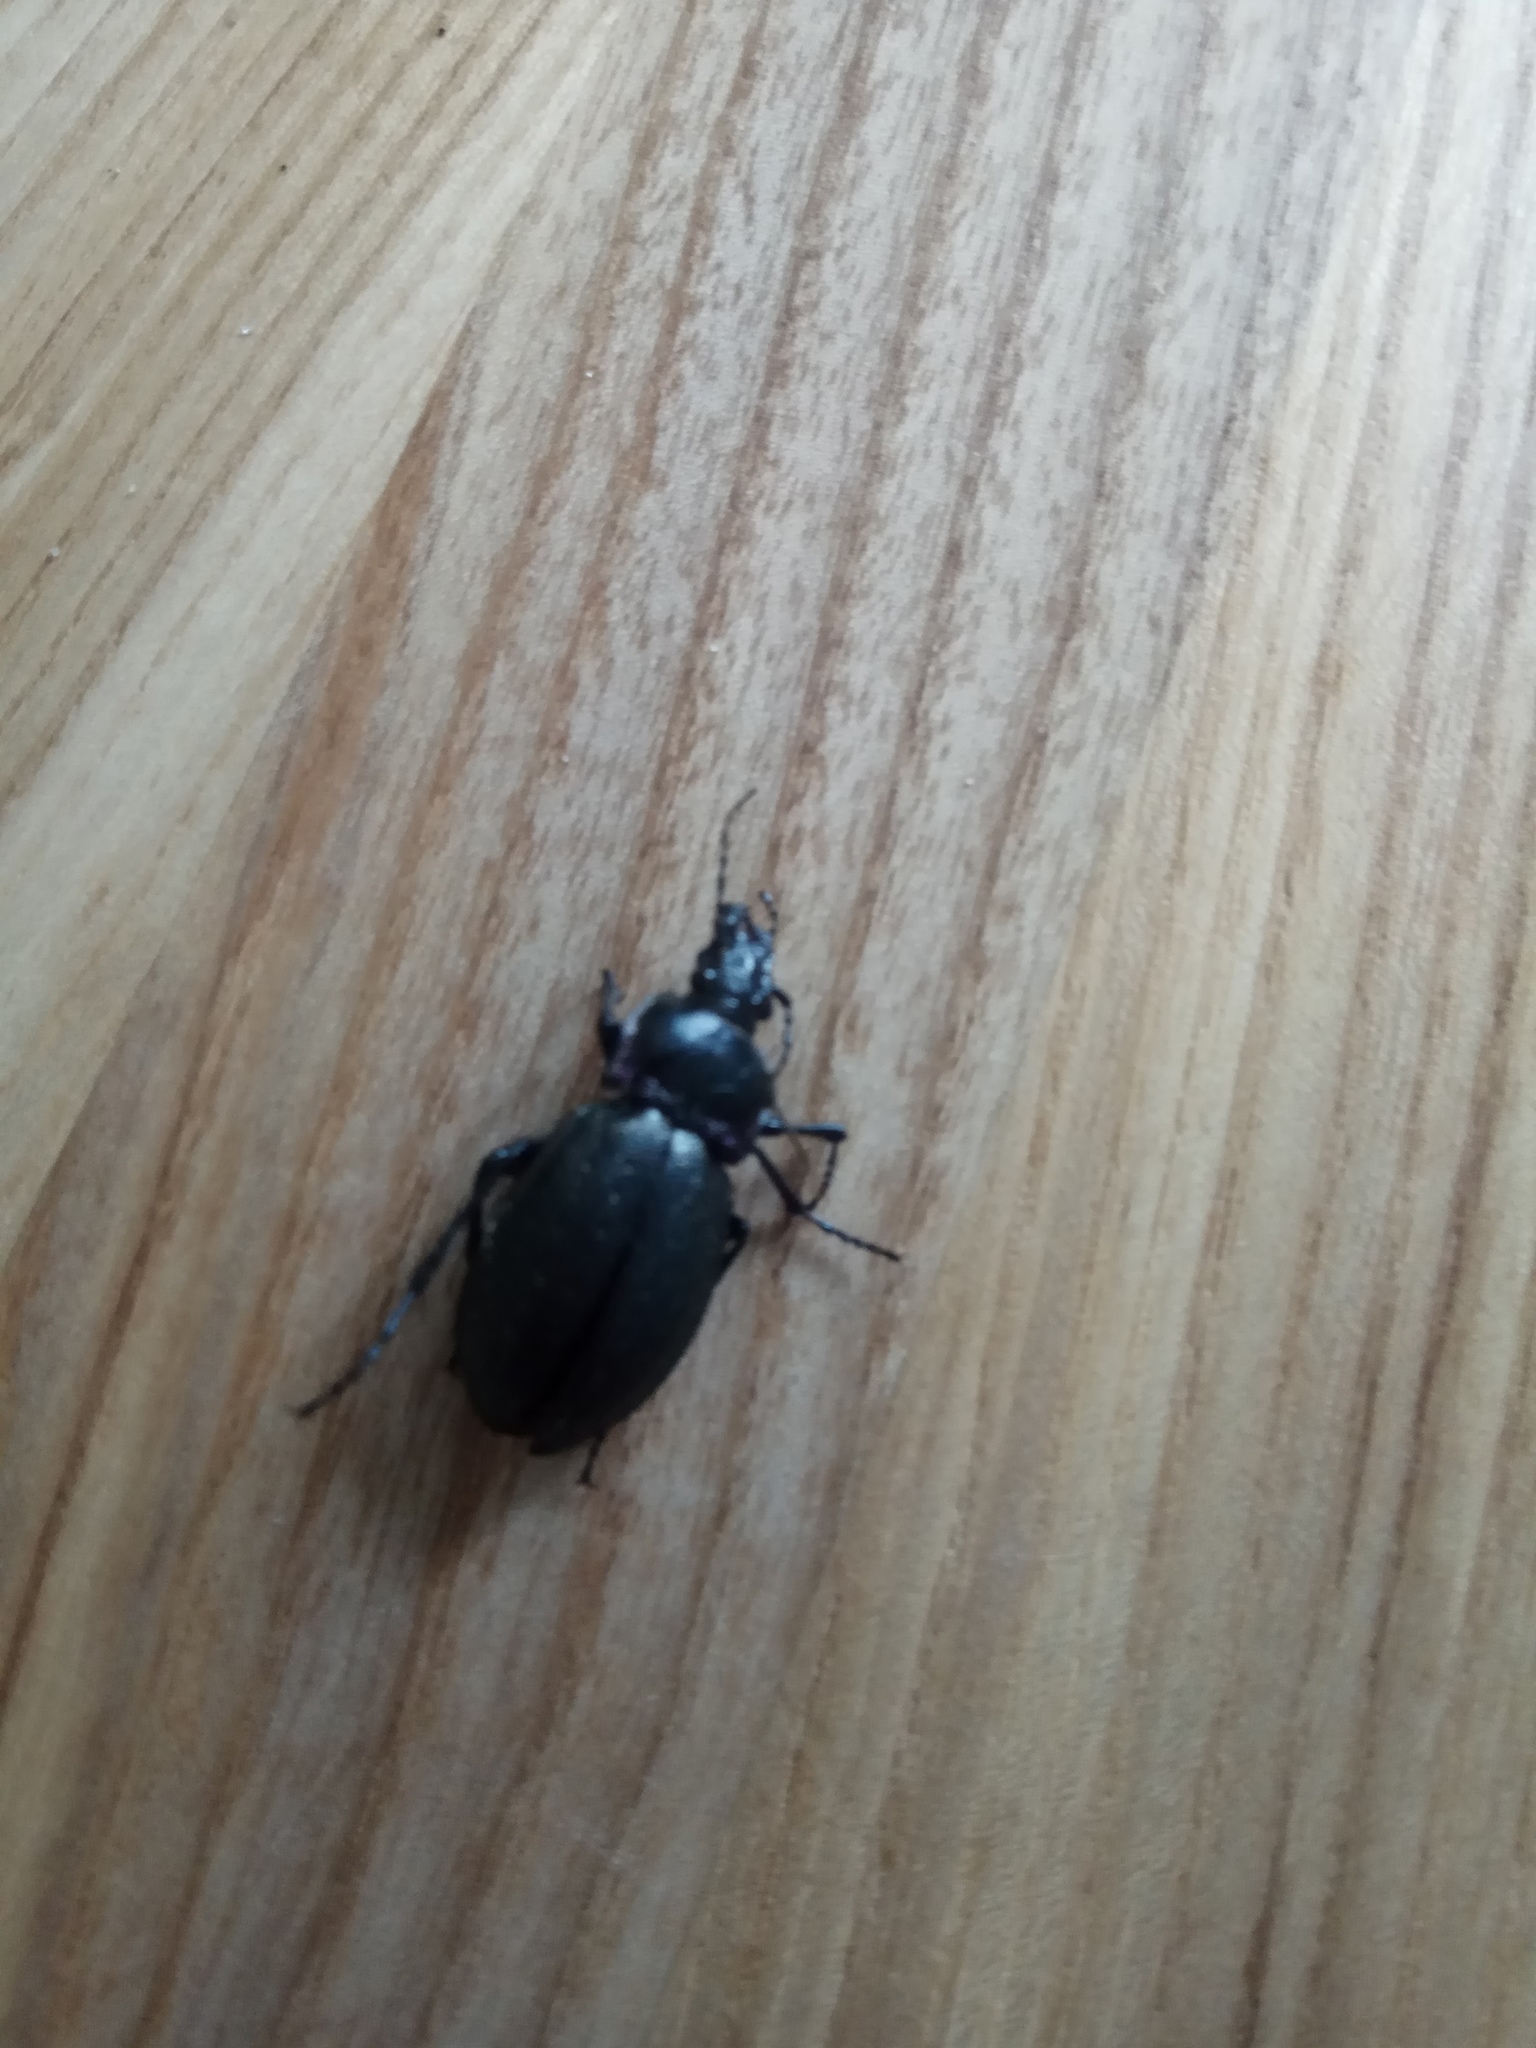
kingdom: Animalia
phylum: Arthropoda
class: Insecta
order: Coleoptera
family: Carabidae
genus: Carabus
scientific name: Carabus nemoralis
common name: European ground beetle
